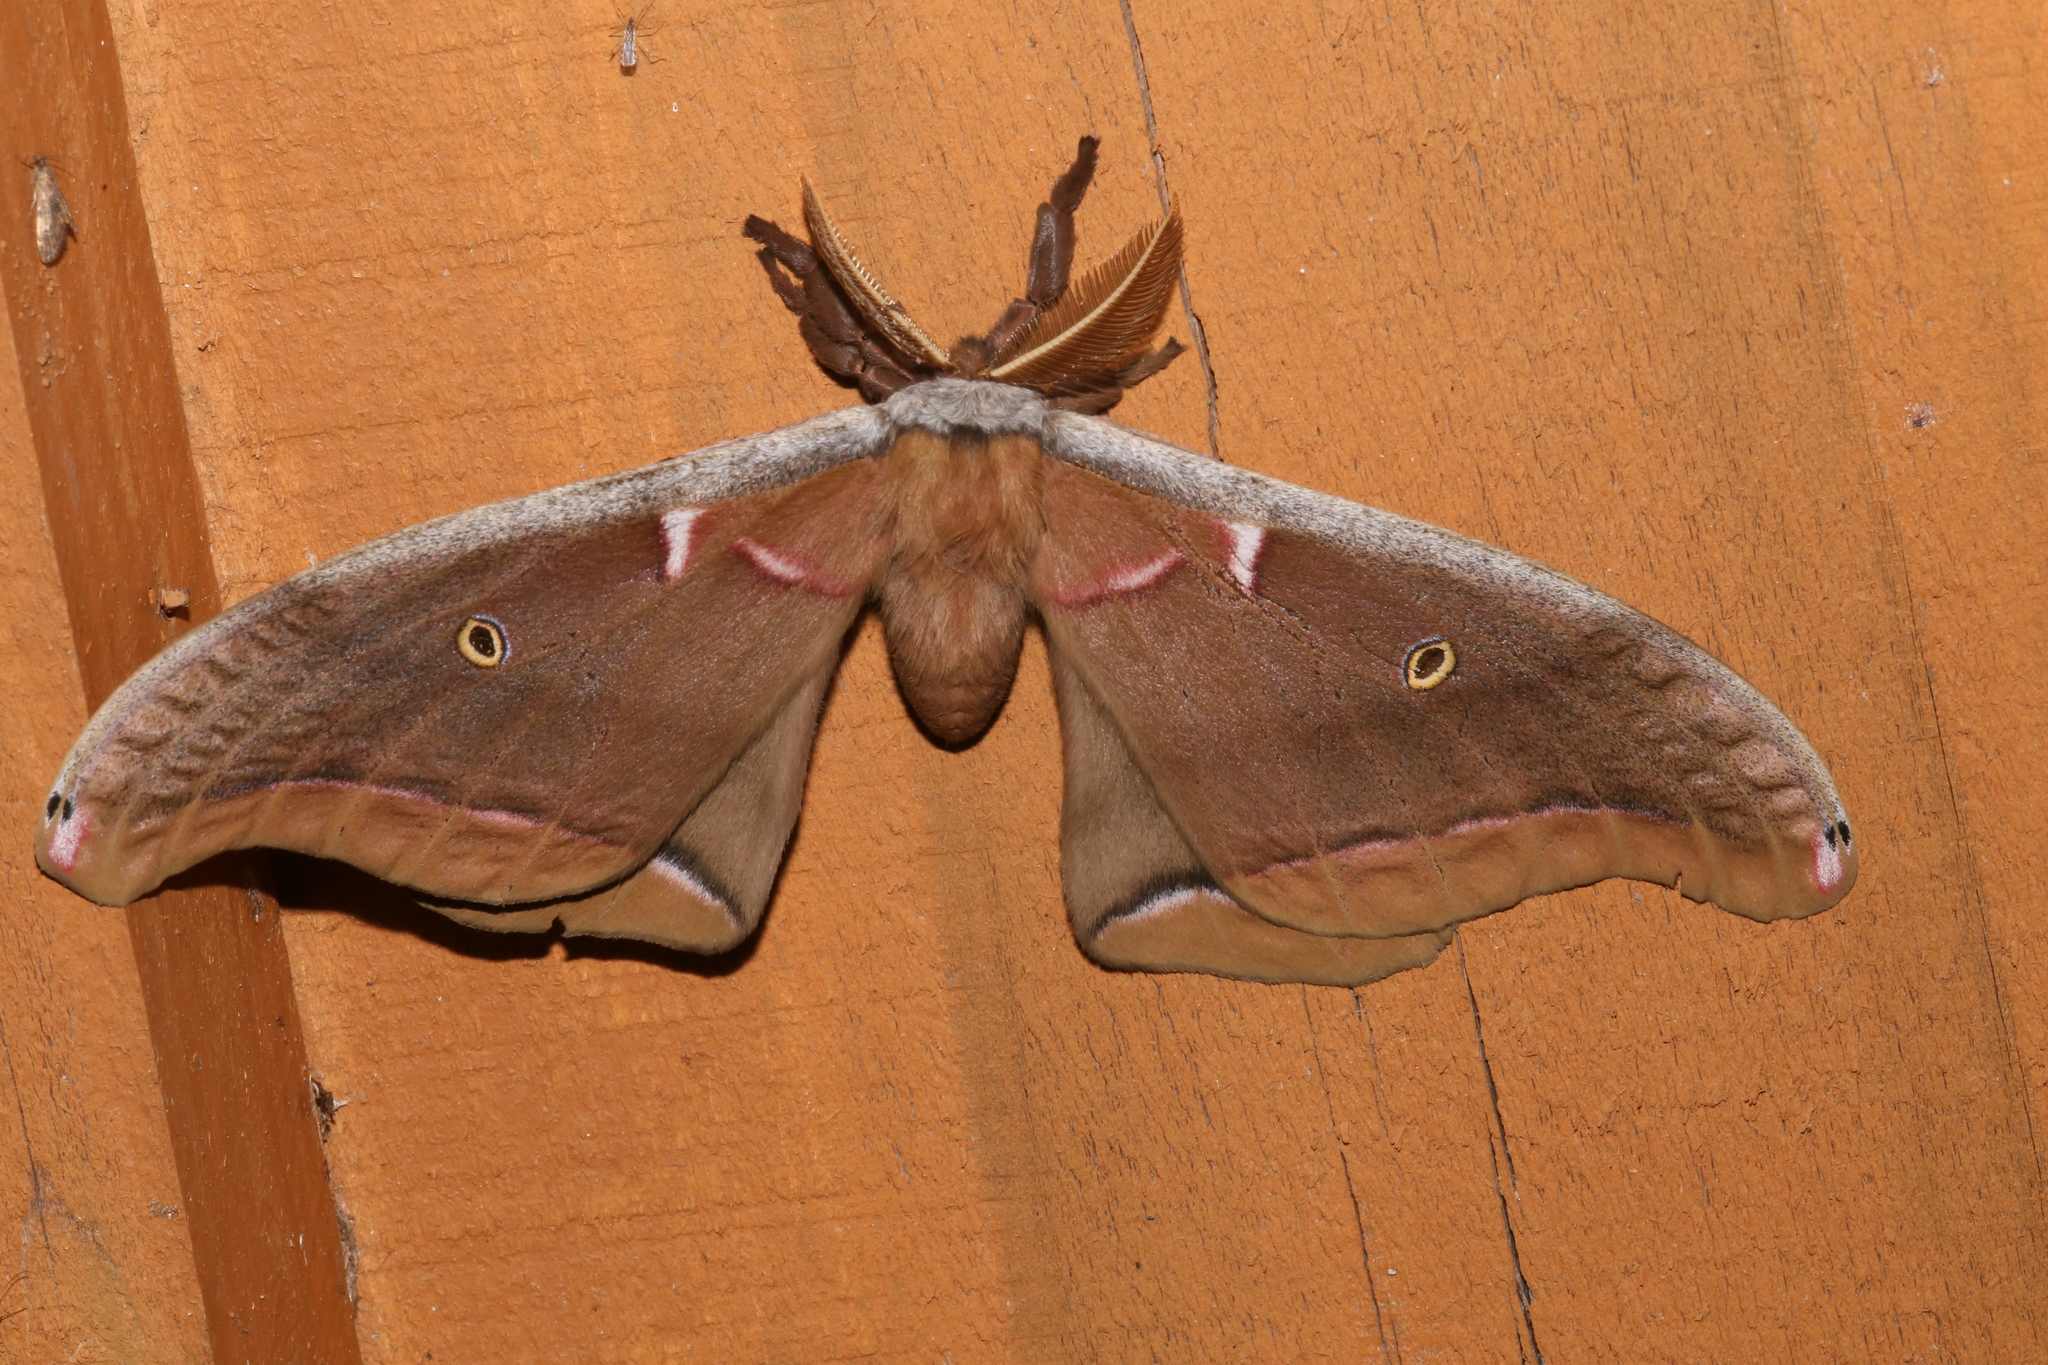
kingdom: Animalia
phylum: Arthropoda
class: Insecta
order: Lepidoptera
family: Saturniidae
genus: Antheraea
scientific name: Antheraea polyphemus
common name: Polyphemus moth
